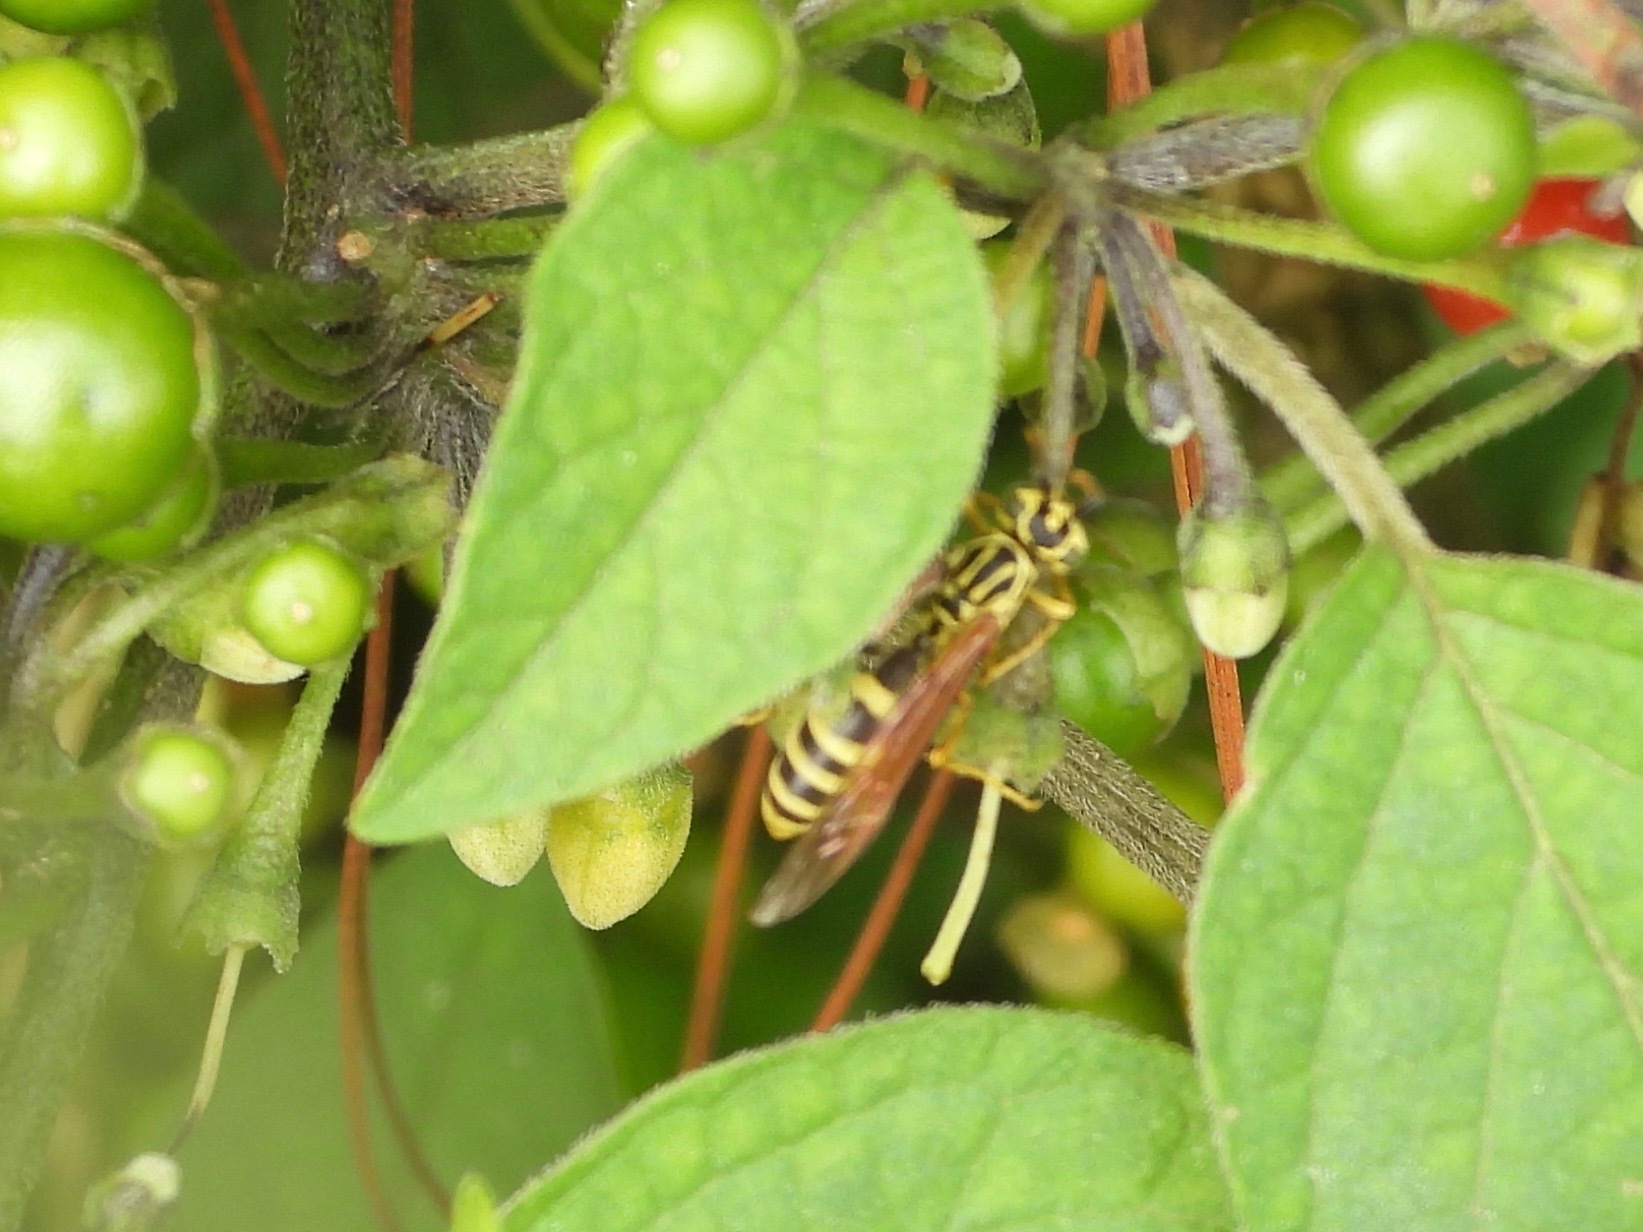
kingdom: Animalia
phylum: Arthropoda
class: Insecta
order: Hymenoptera
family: Vespidae
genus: Agelaia
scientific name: Agelaia areata
